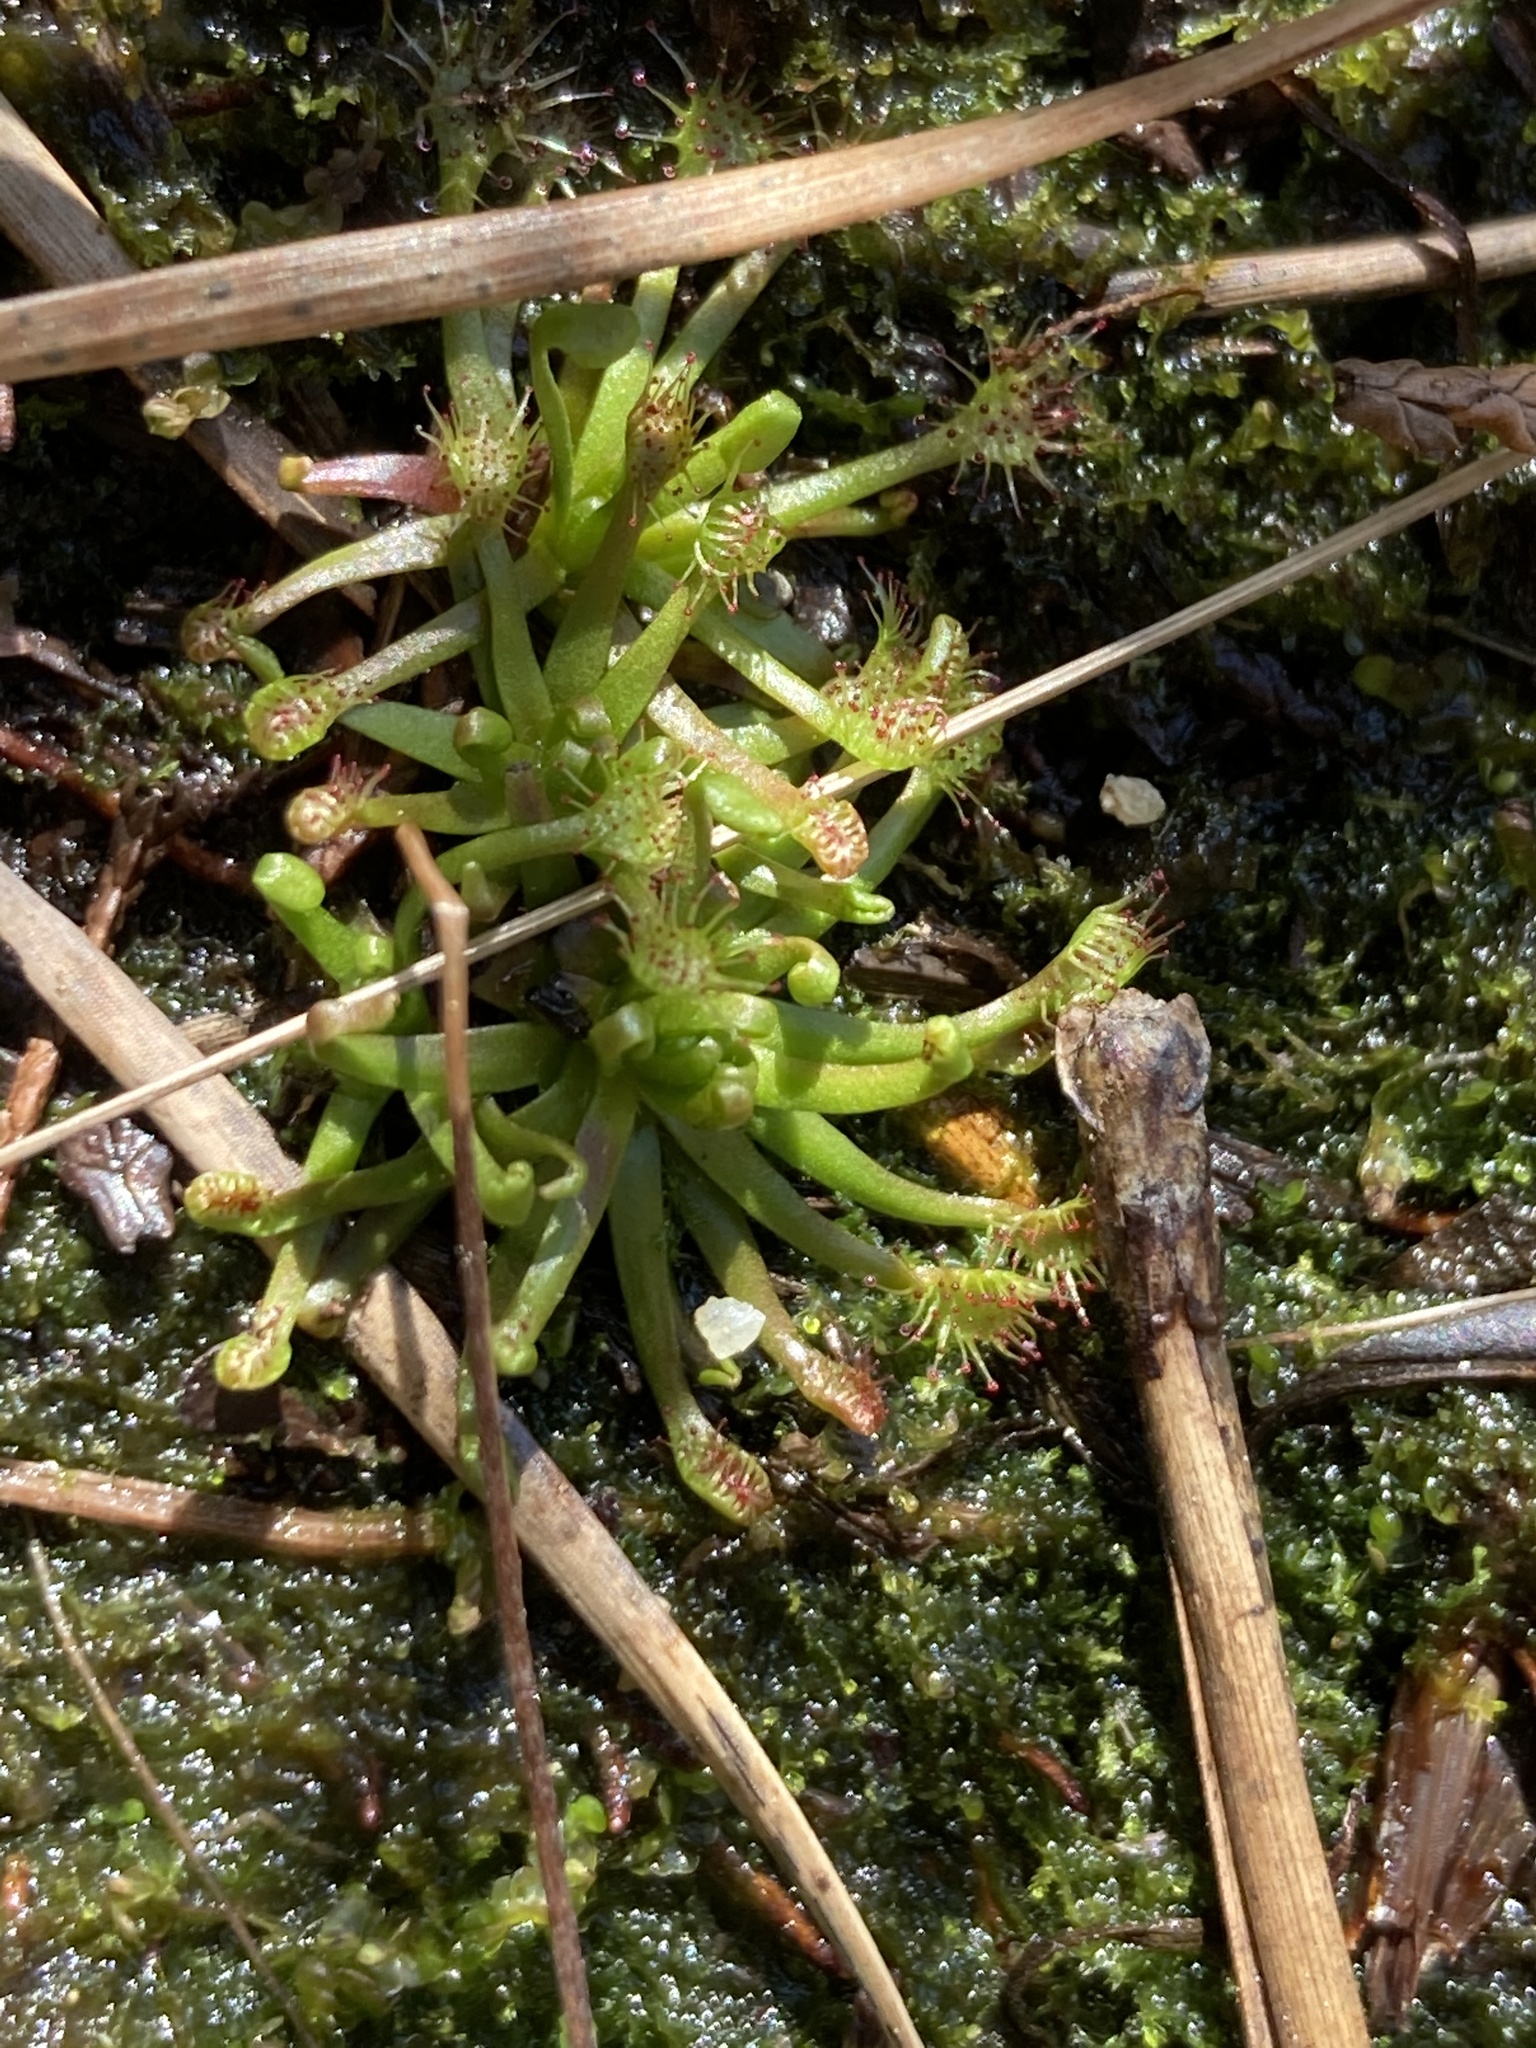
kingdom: Plantae
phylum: Tracheophyta
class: Magnoliopsida
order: Caryophyllales
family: Droseraceae
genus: Drosera
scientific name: Drosera intermedia
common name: Oblong-leaved sundew
